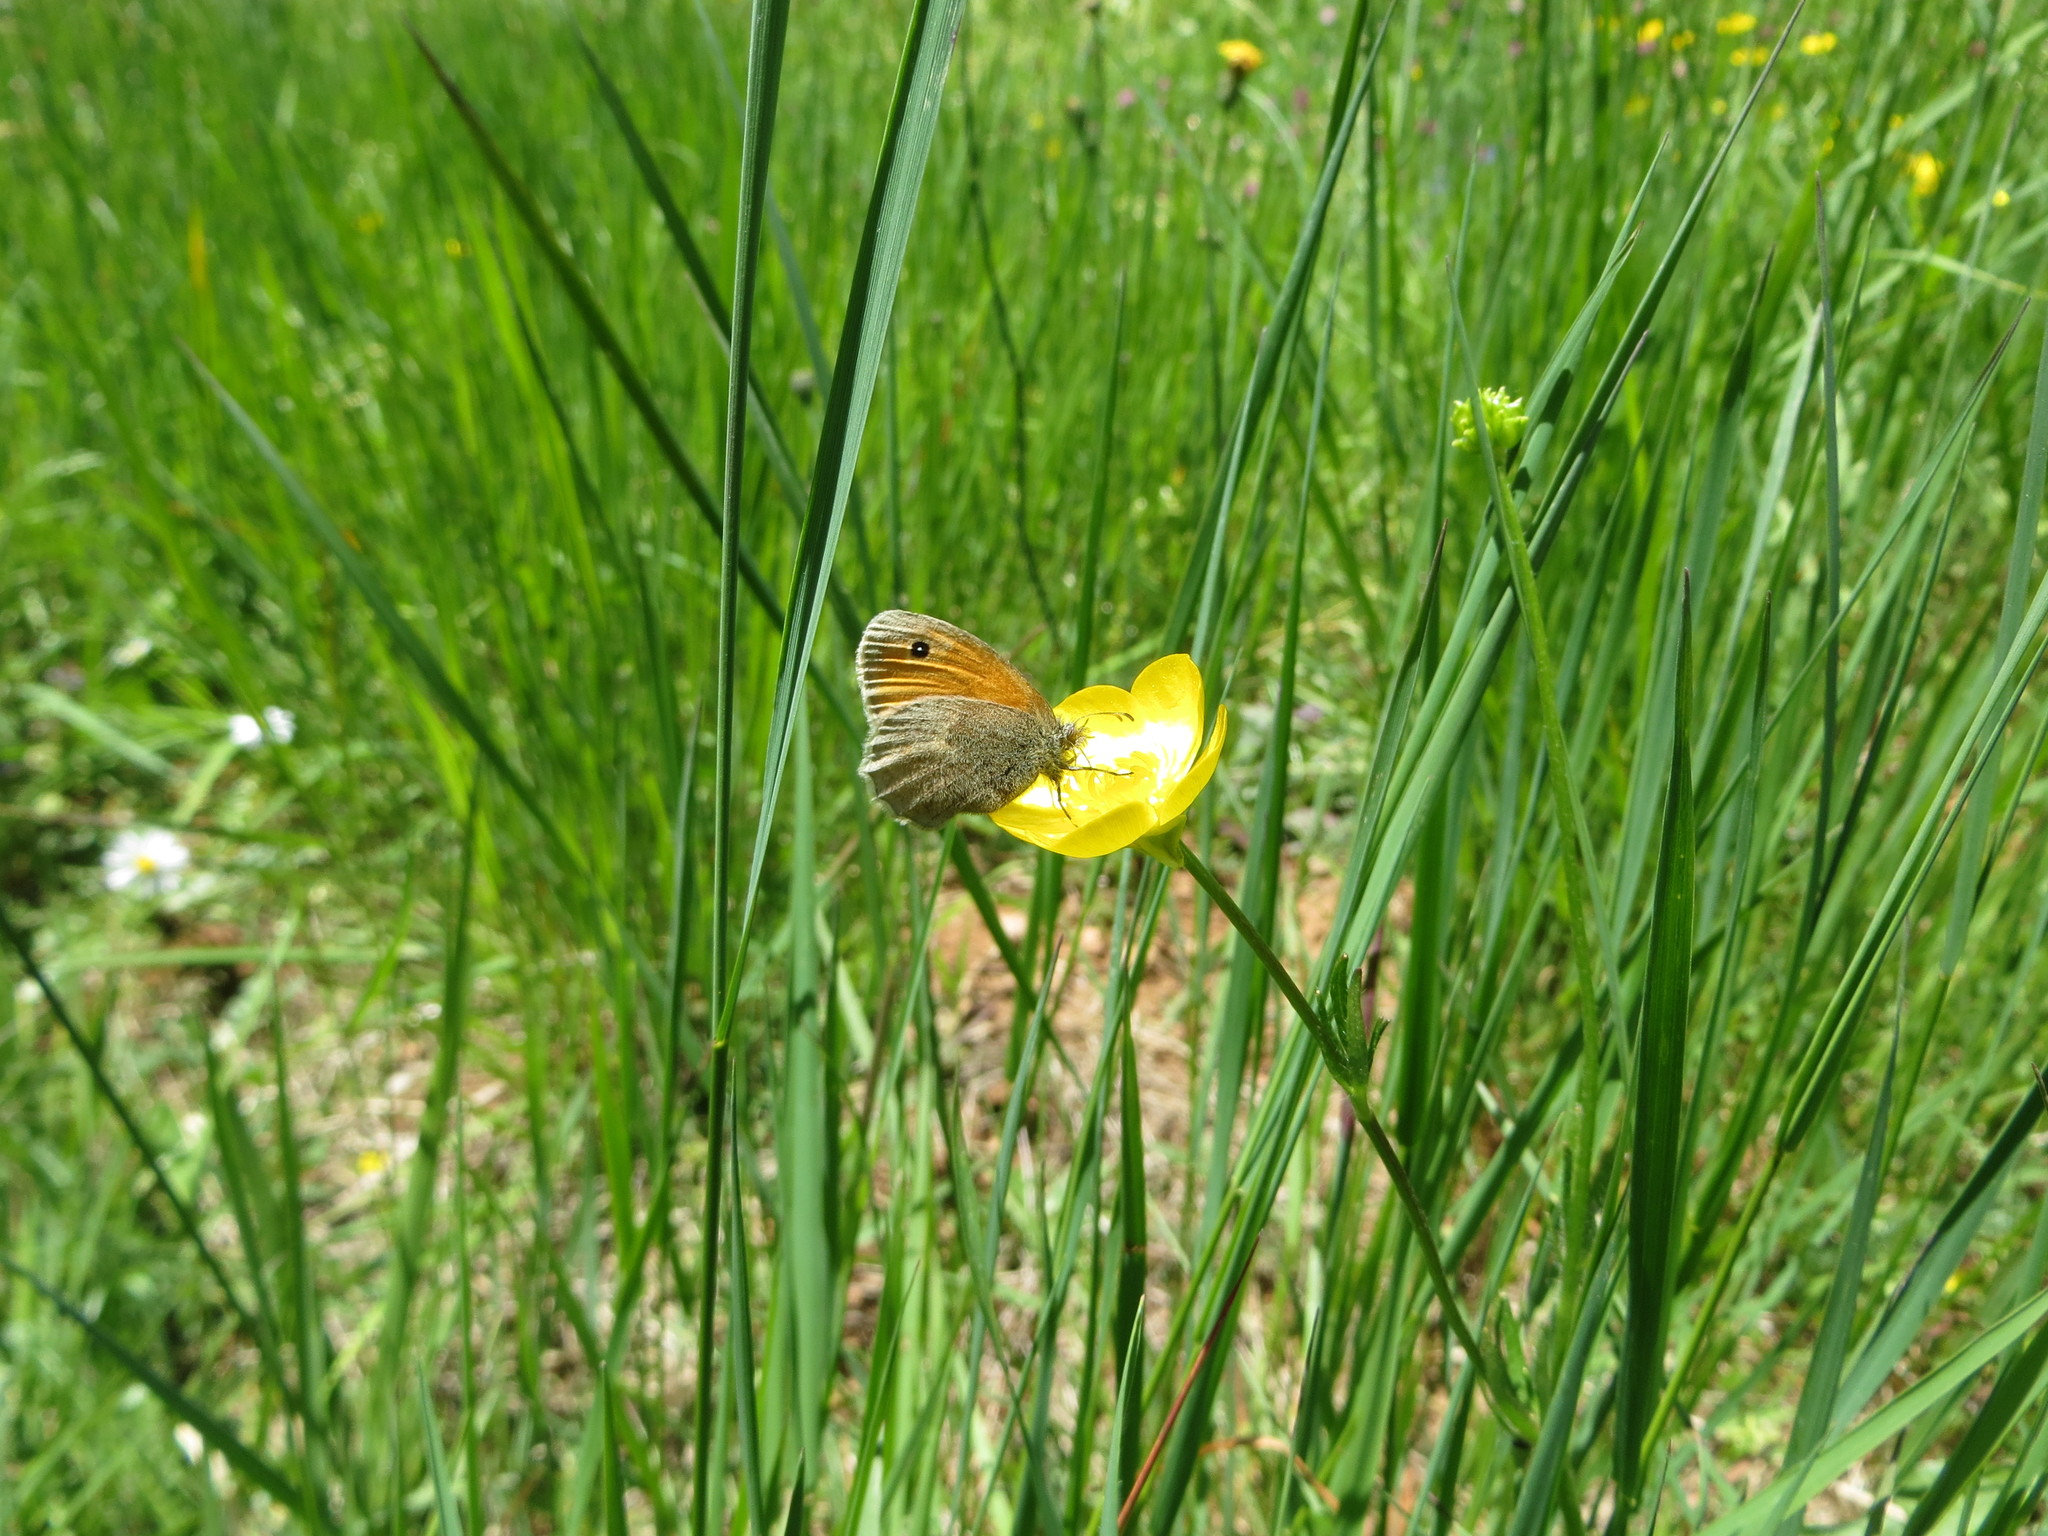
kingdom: Animalia
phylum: Arthropoda
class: Insecta
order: Lepidoptera
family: Nymphalidae
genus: Coenonympha
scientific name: Coenonympha pamphilus
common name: Small heath
